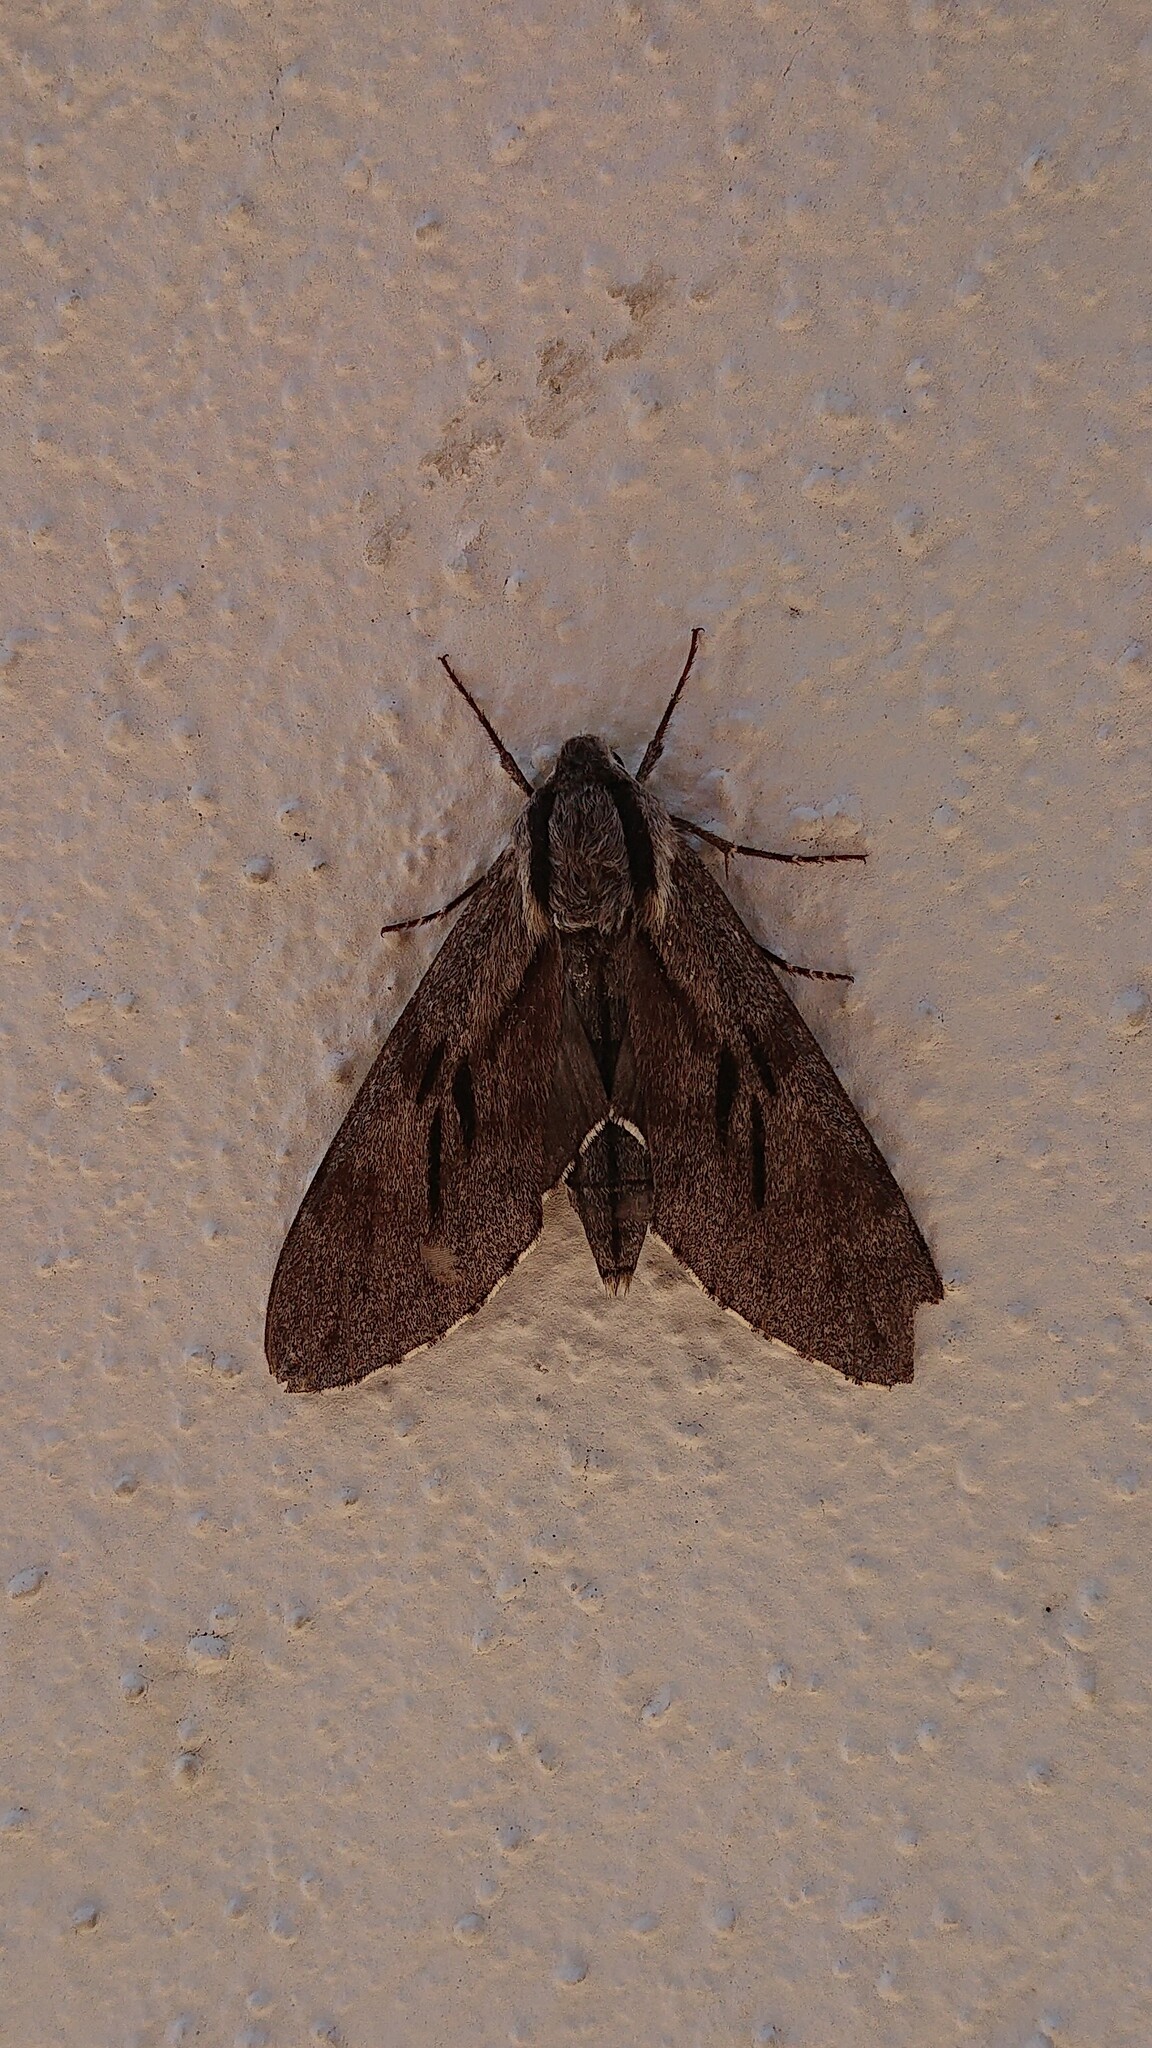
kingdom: Animalia
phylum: Arthropoda
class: Insecta
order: Lepidoptera
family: Sphingidae
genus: Sphinx
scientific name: Sphinx pinastri
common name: Pine hawk-moth
